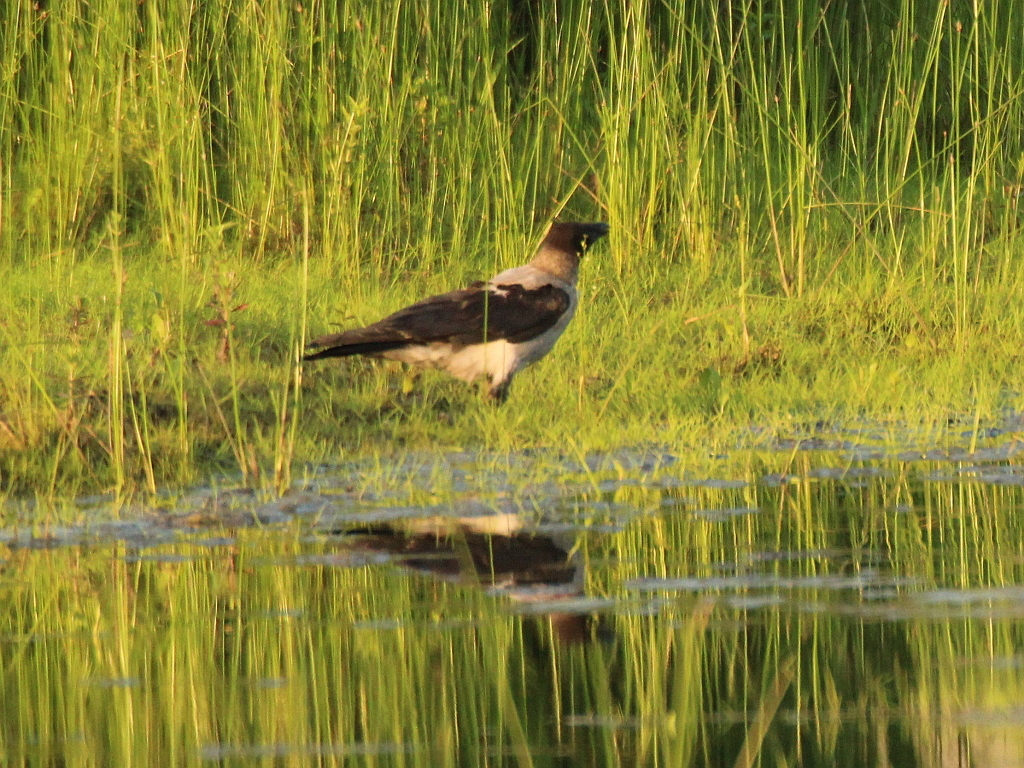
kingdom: Animalia
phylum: Chordata
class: Aves
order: Passeriformes
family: Corvidae
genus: Corvus
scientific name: Corvus cornix
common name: Hooded crow
